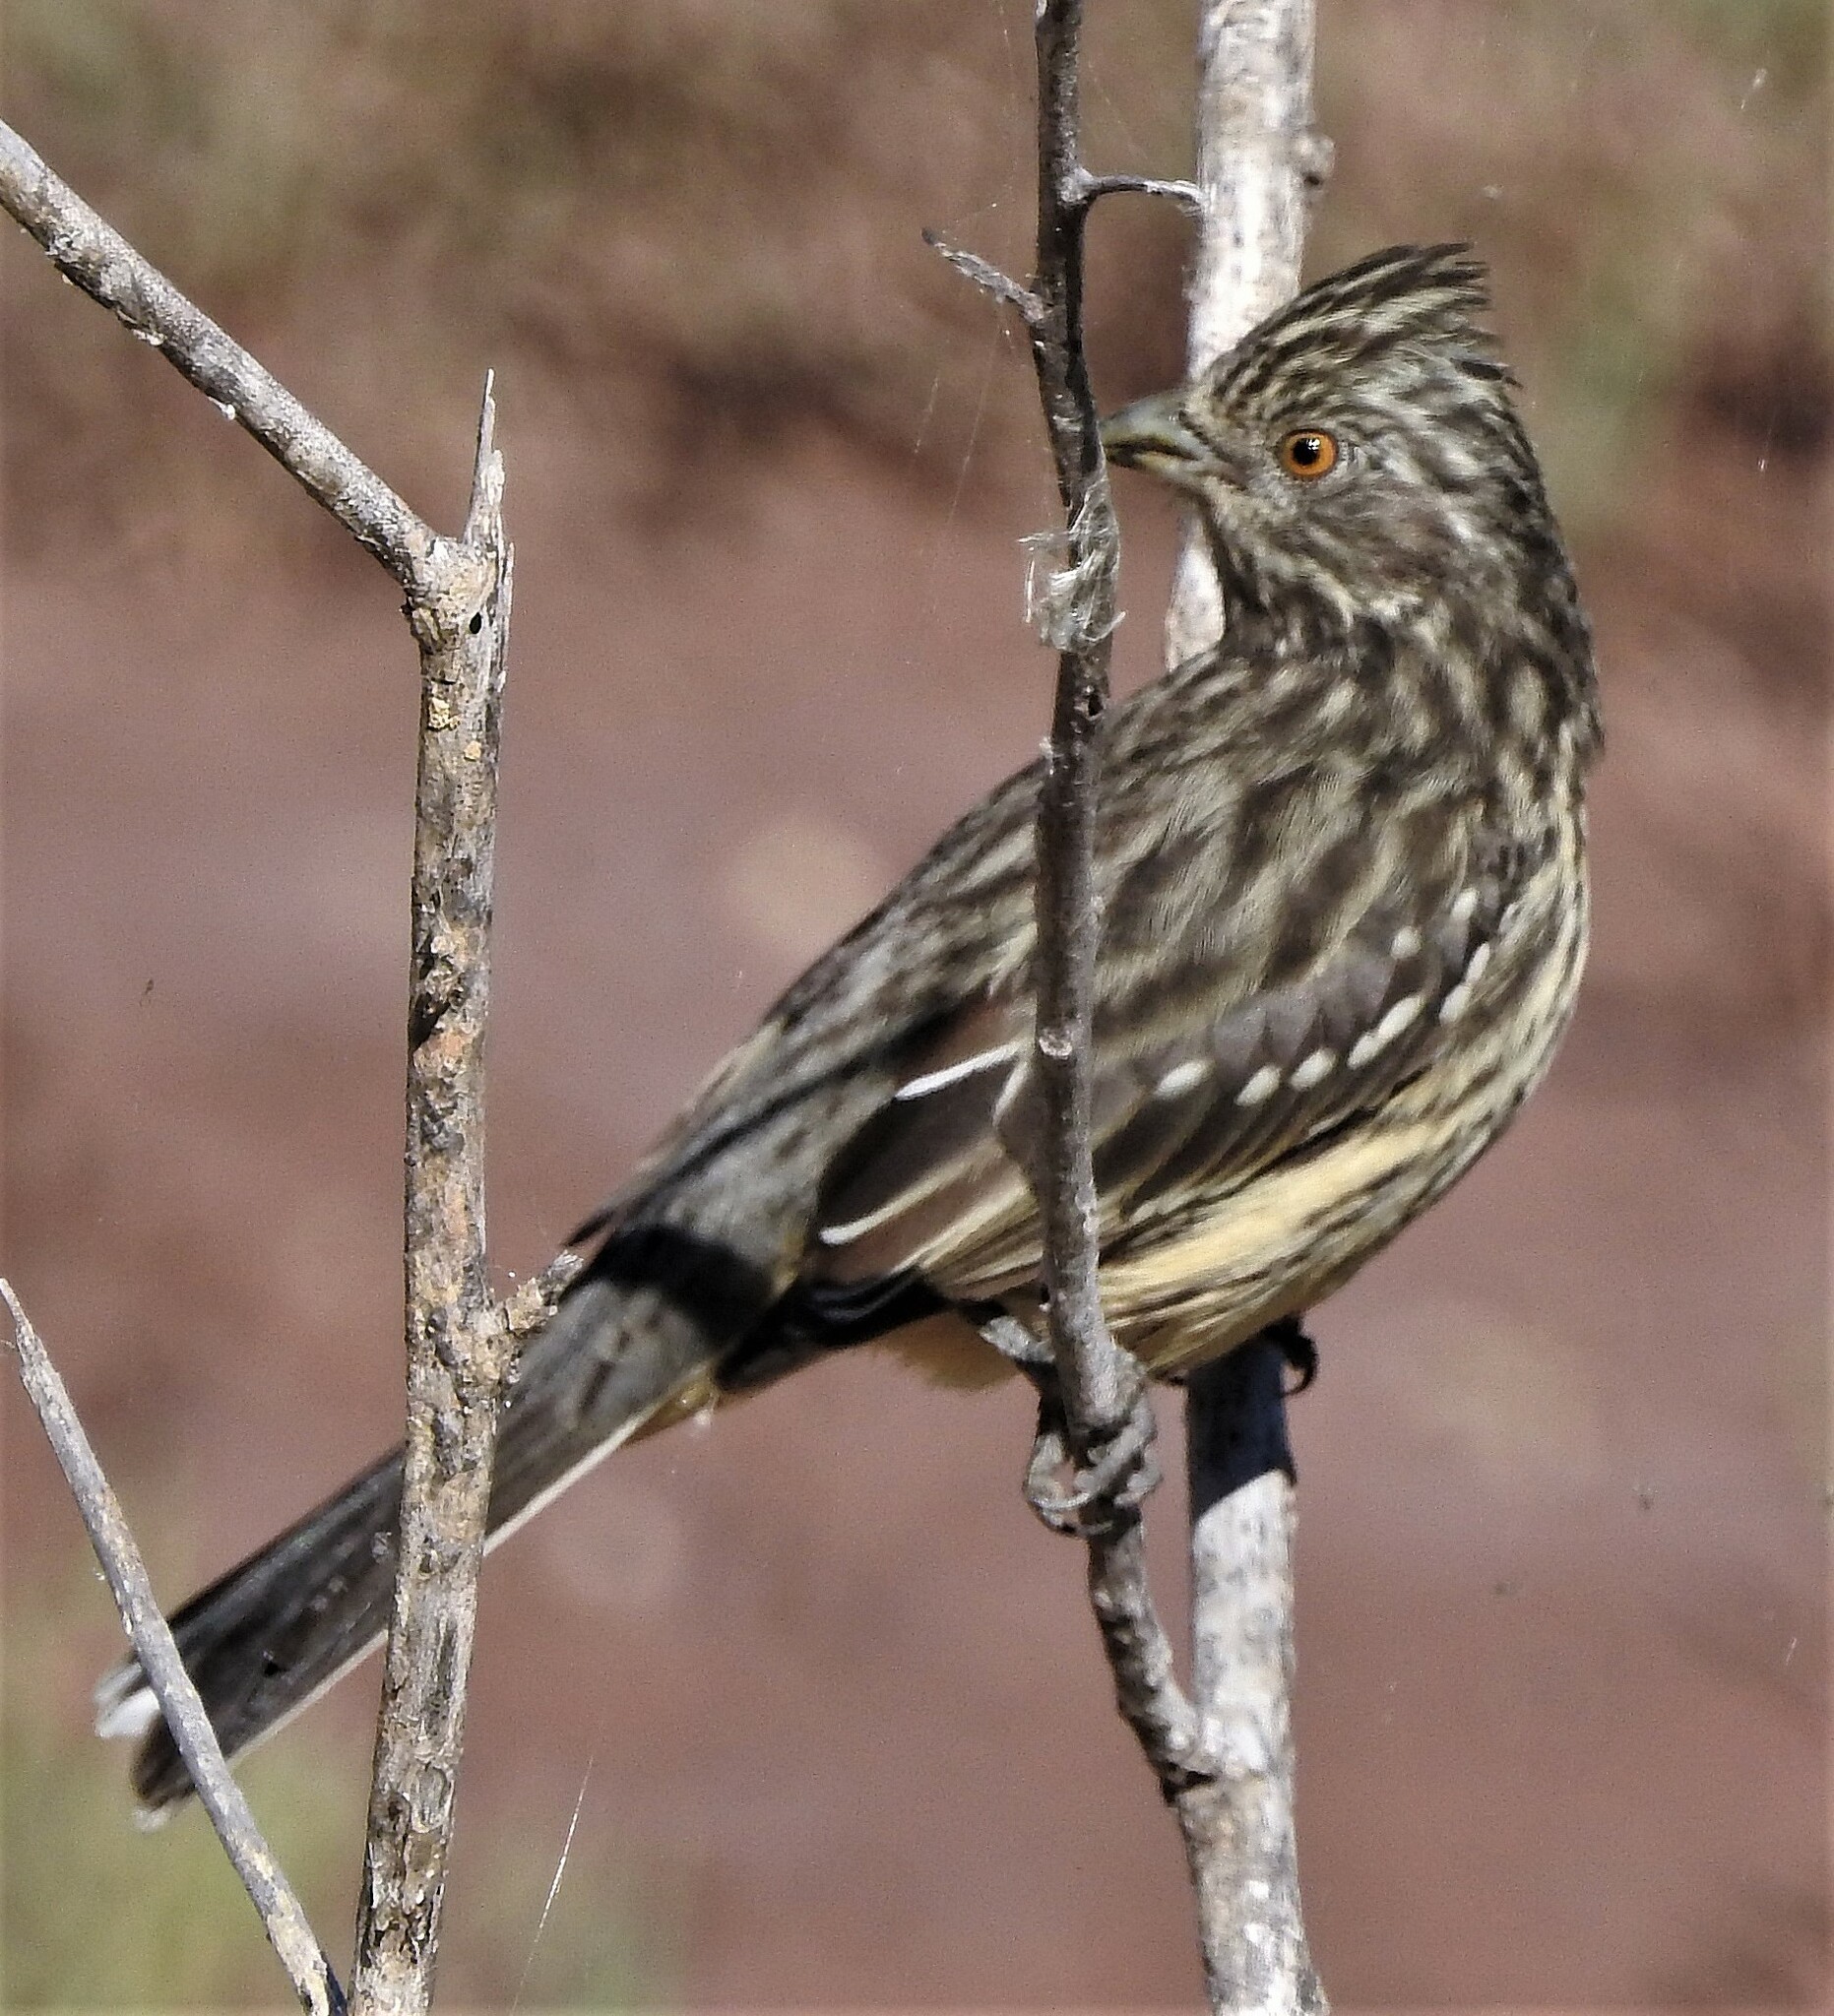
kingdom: Animalia
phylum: Chordata
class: Aves
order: Passeriformes
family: Cotingidae
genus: Phytotoma
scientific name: Phytotoma rutila
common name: White-tipped plantcutter
